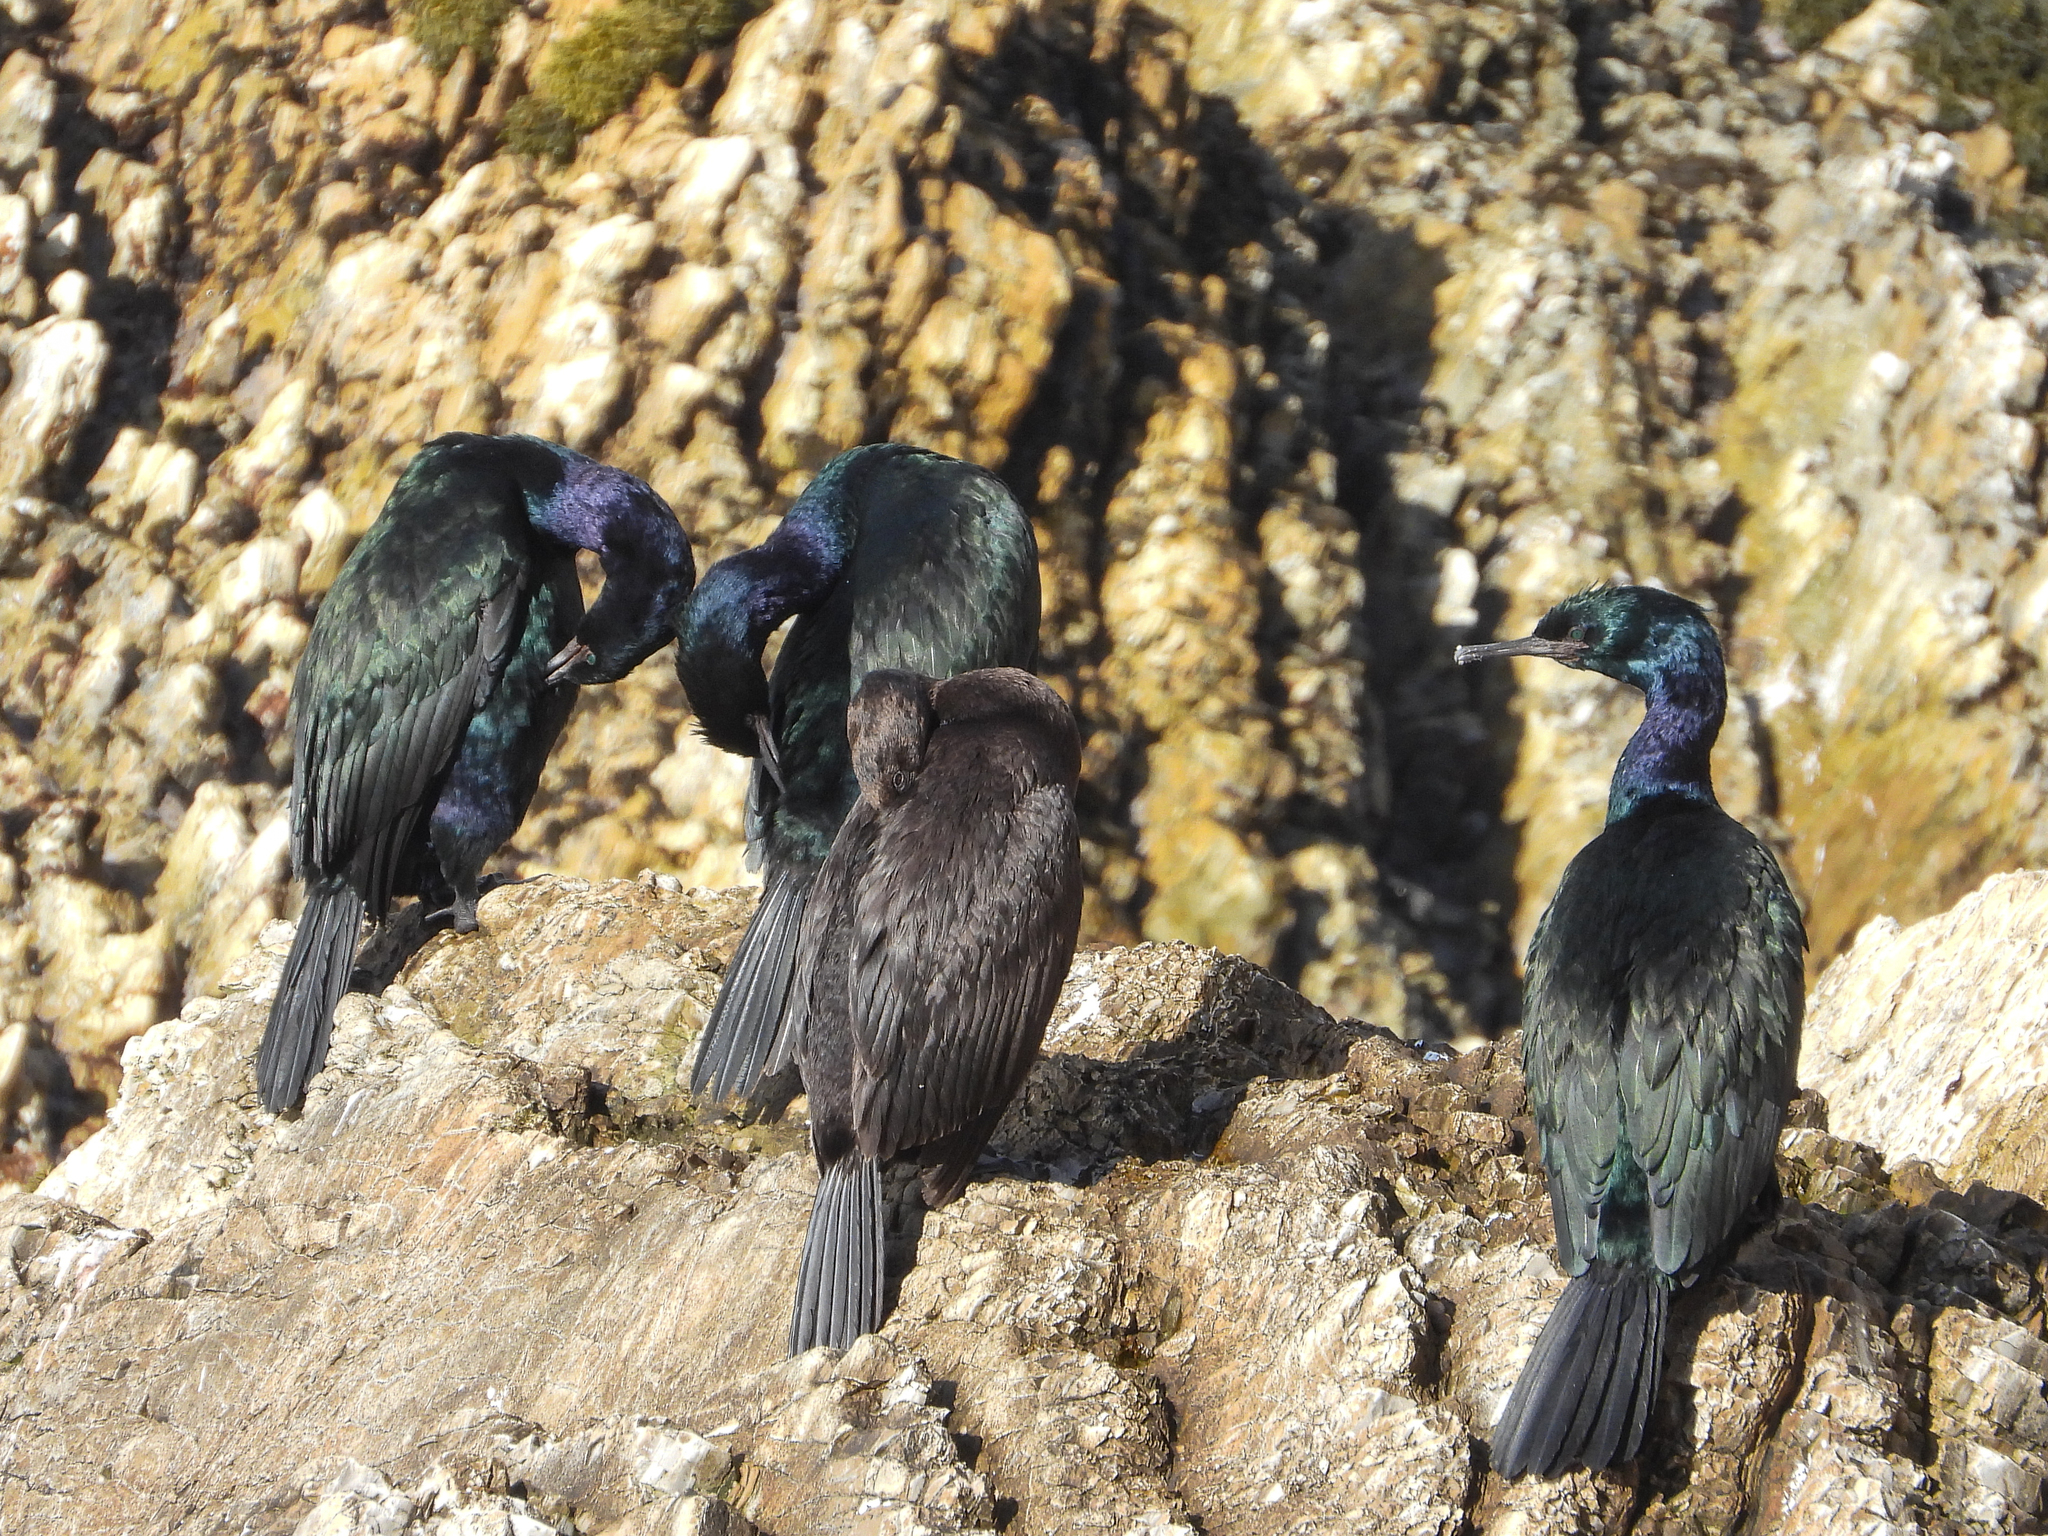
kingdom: Animalia
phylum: Chordata
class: Aves
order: Suliformes
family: Phalacrocoracidae
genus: Phalacrocorax
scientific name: Phalacrocorax pelagicus
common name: Pelagic cormorant
